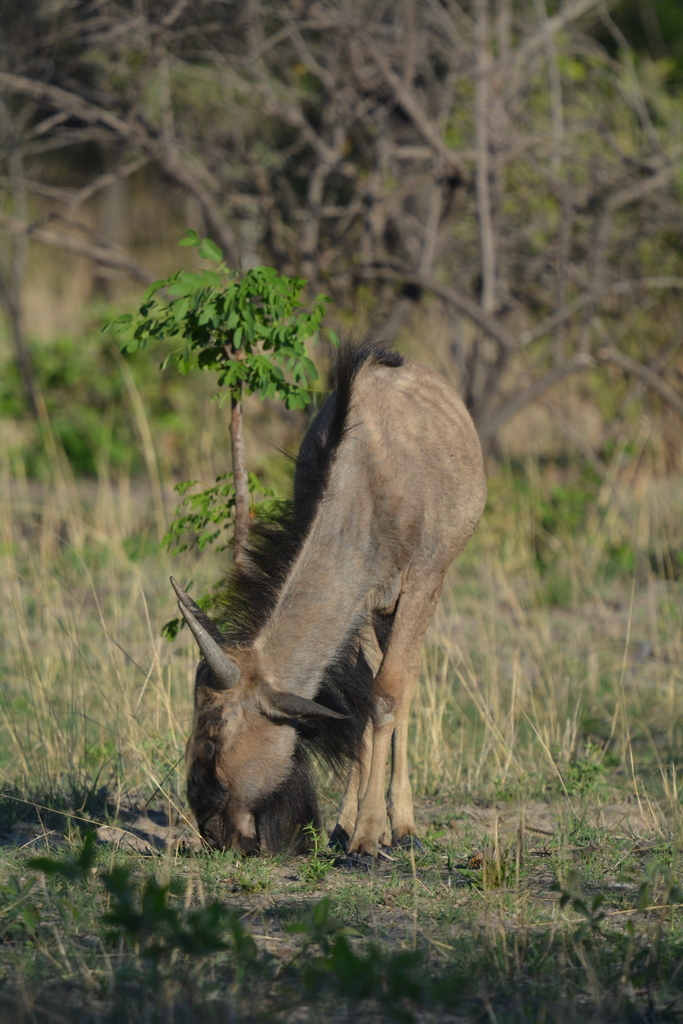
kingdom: Animalia
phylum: Chordata
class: Mammalia
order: Artiodactyla
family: Bovidae
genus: Connochaetes
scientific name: Connochaetes taurinus
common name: Blue wildebeest
